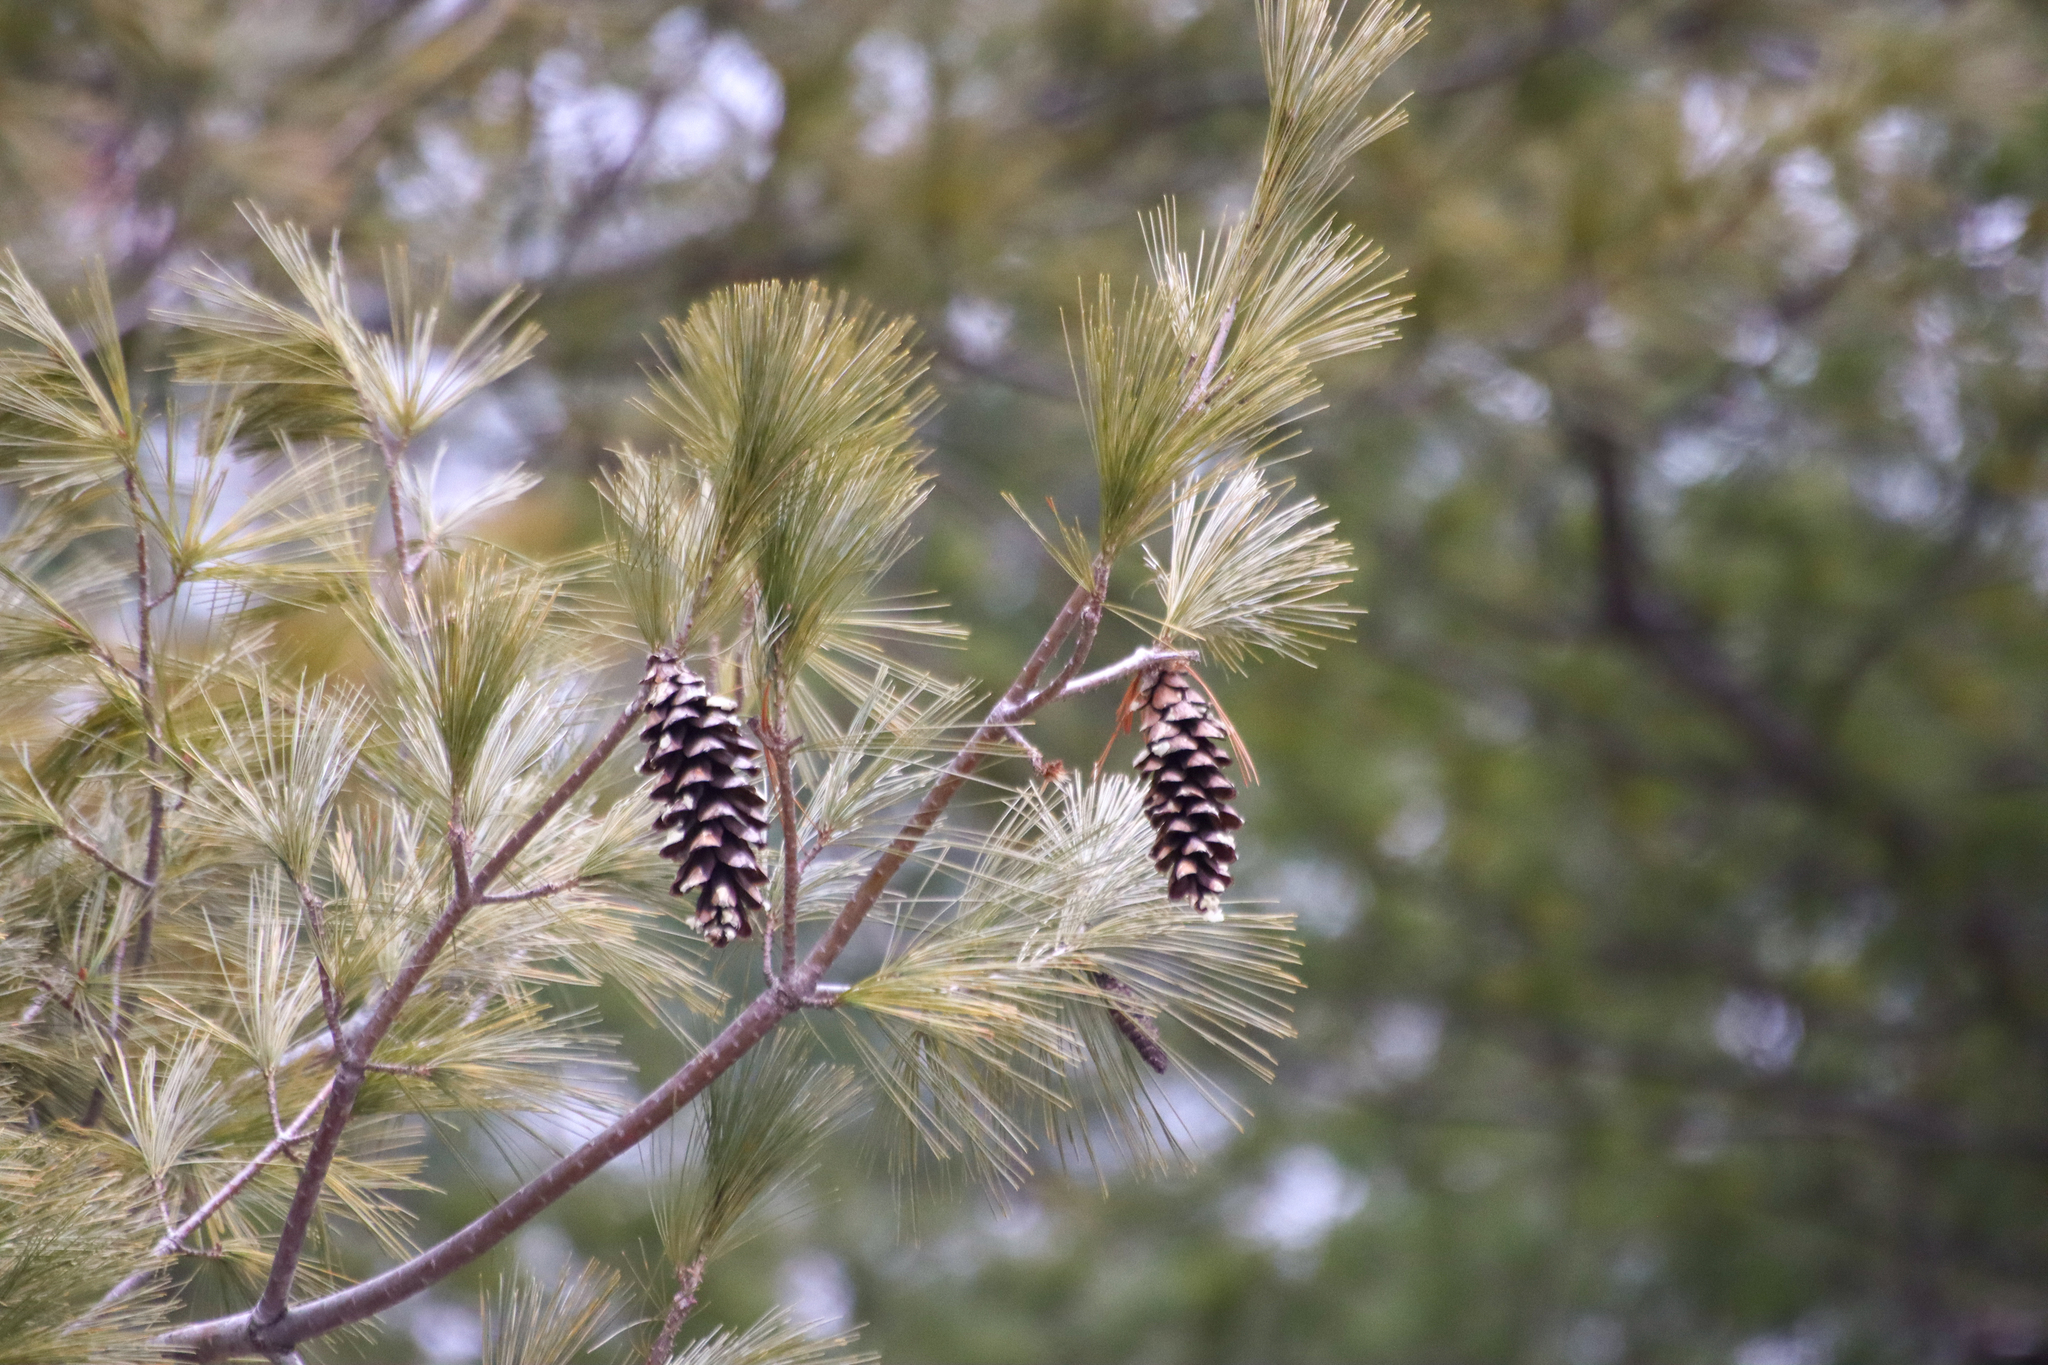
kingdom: Plantae
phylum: Tracheophyta
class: Pinopsida
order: Pinales
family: Pinaceae
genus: Pinus
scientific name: Pinus strobus
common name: Weymouth pine
